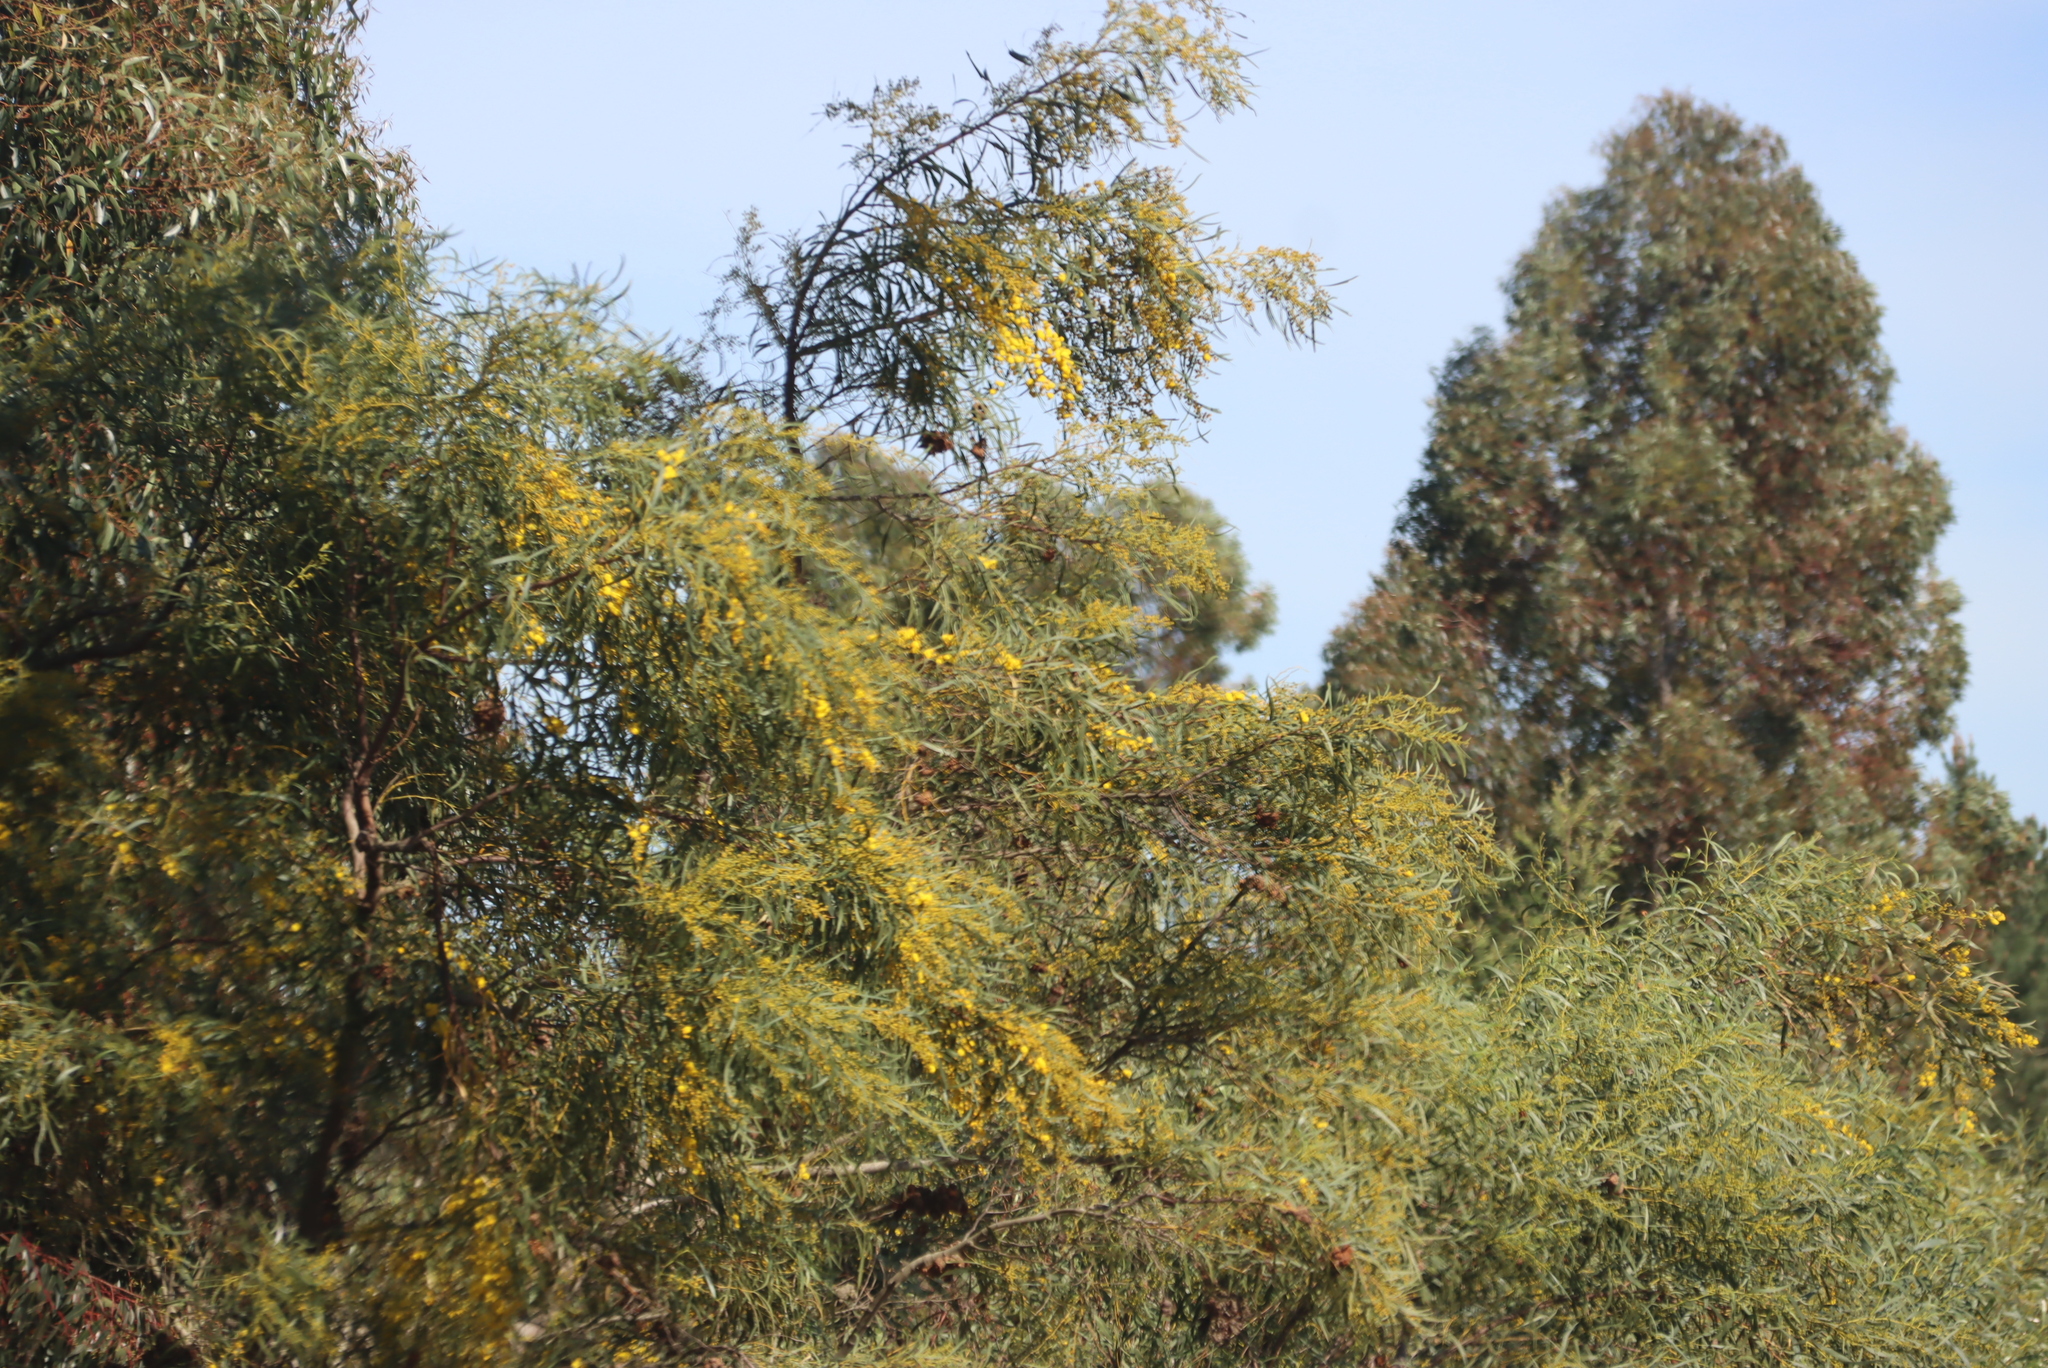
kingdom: Plantae
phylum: Tracheophyta
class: Magnoliopsida
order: Fabales
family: Fabaceae
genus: Acacia
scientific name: Acacia saligna
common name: Orange wattle
